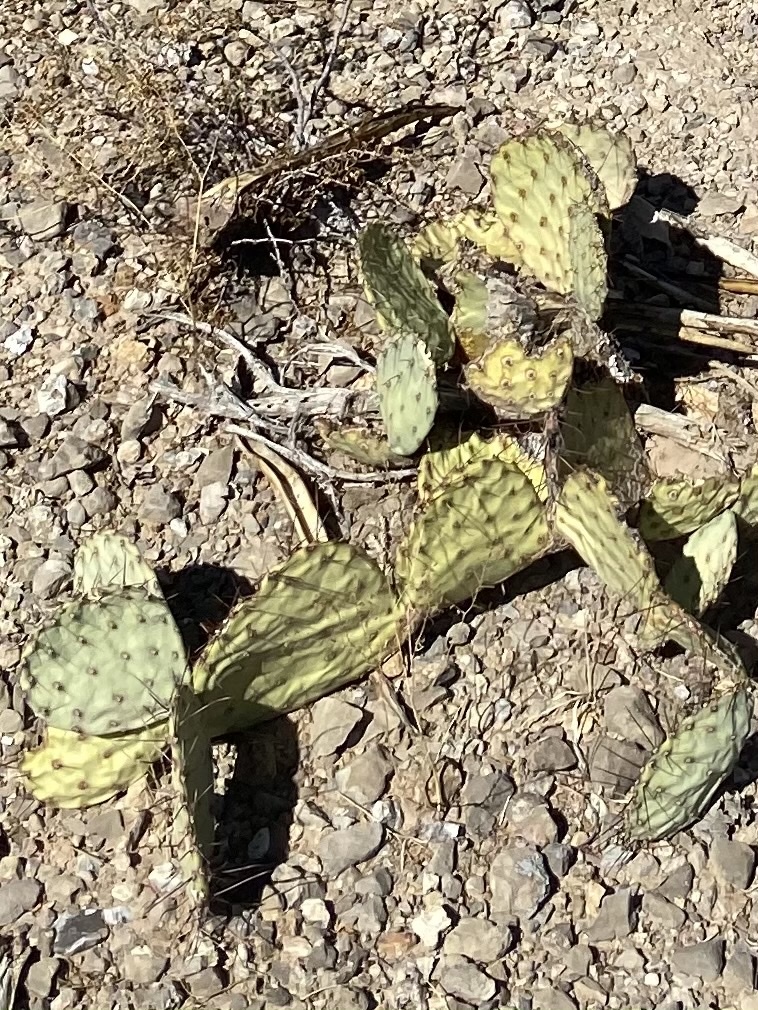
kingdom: Plantae
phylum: Tracheophyta
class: Magnoliopsida
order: Caryophyllales
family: Cactaceae
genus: Opuntia
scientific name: Opuntia phaeacantha
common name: New mexico prickly-pear
